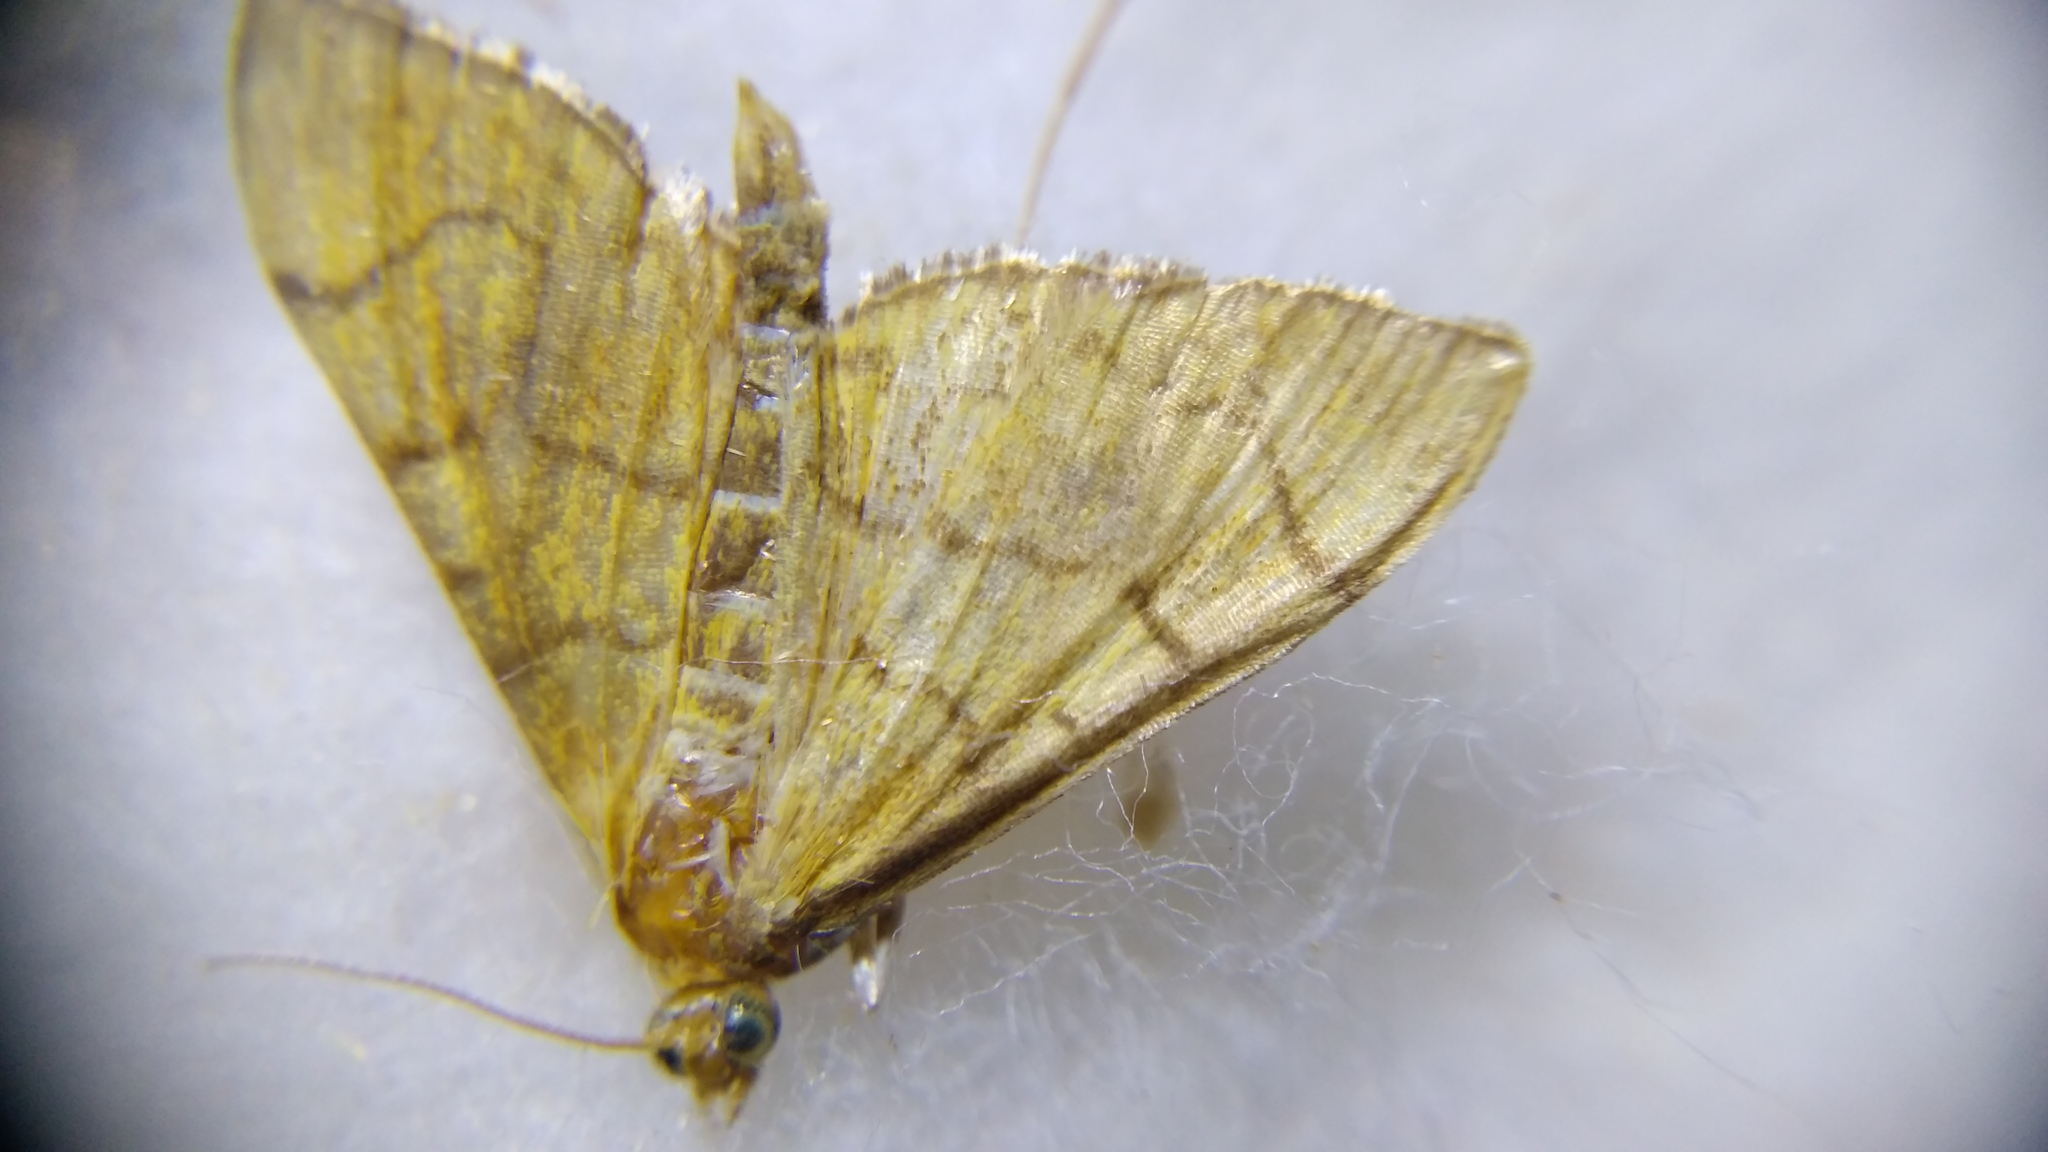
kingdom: Animalia
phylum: Arthropoda
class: Insecta
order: Lepidoptera
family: Crambidae
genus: Anania
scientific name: Anania verbascalis
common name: Golden pearl
